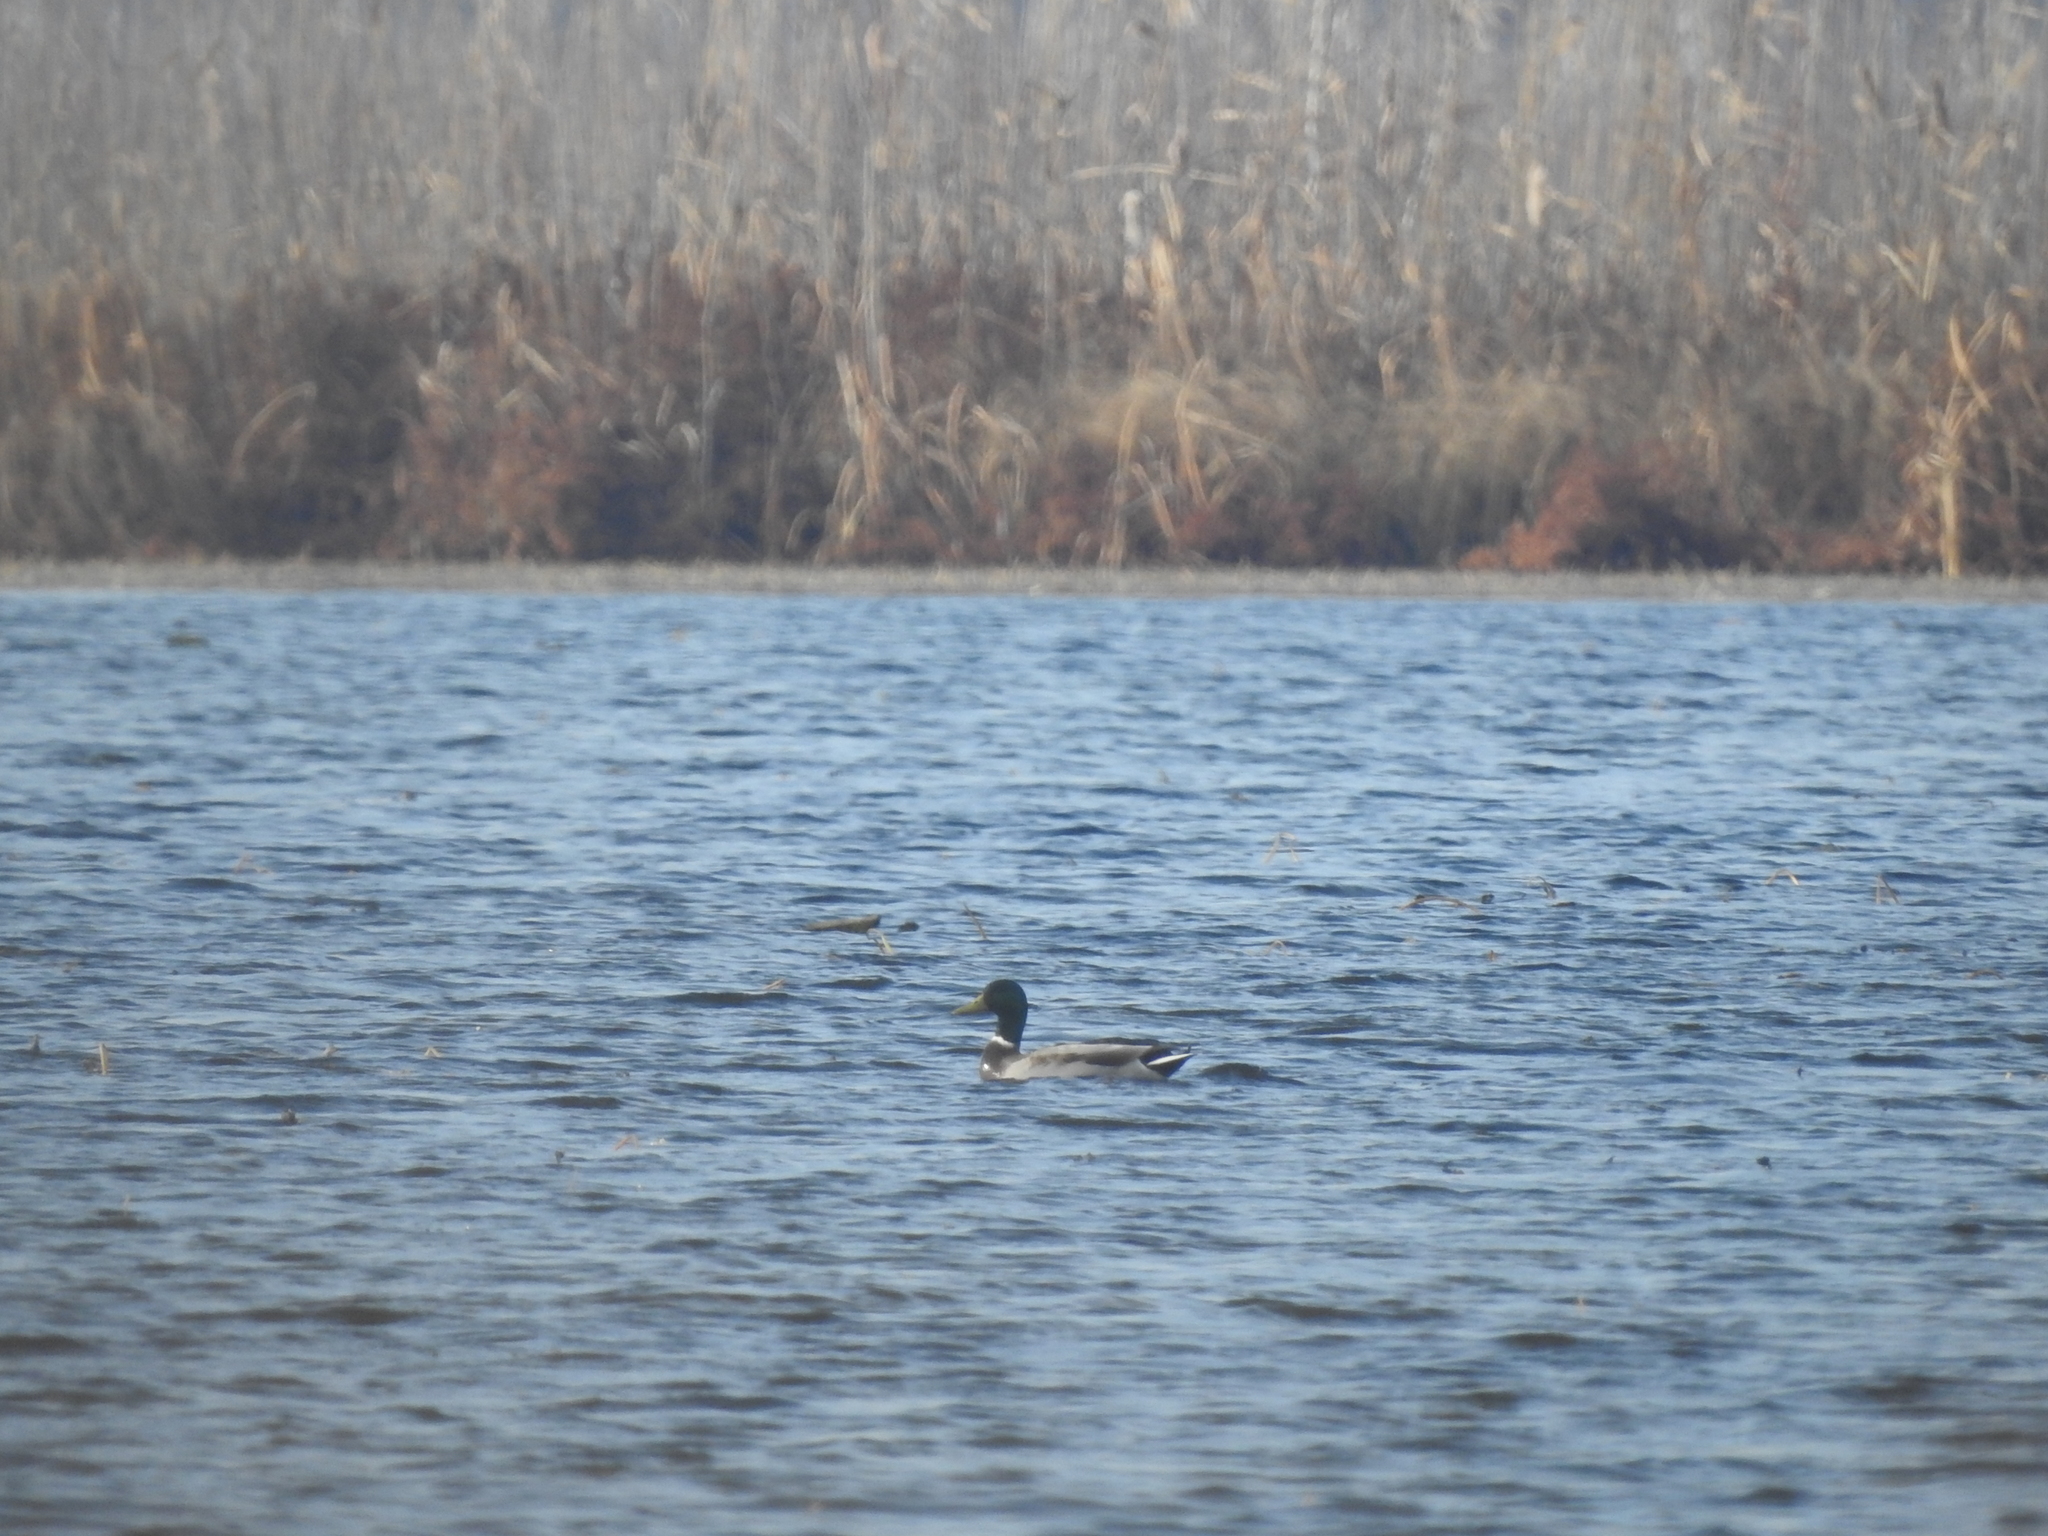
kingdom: Animalia
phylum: Chordata
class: Aves
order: Anseriformes
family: Anatidae
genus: Anas
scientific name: Anas platyrhynchos
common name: Mallard
